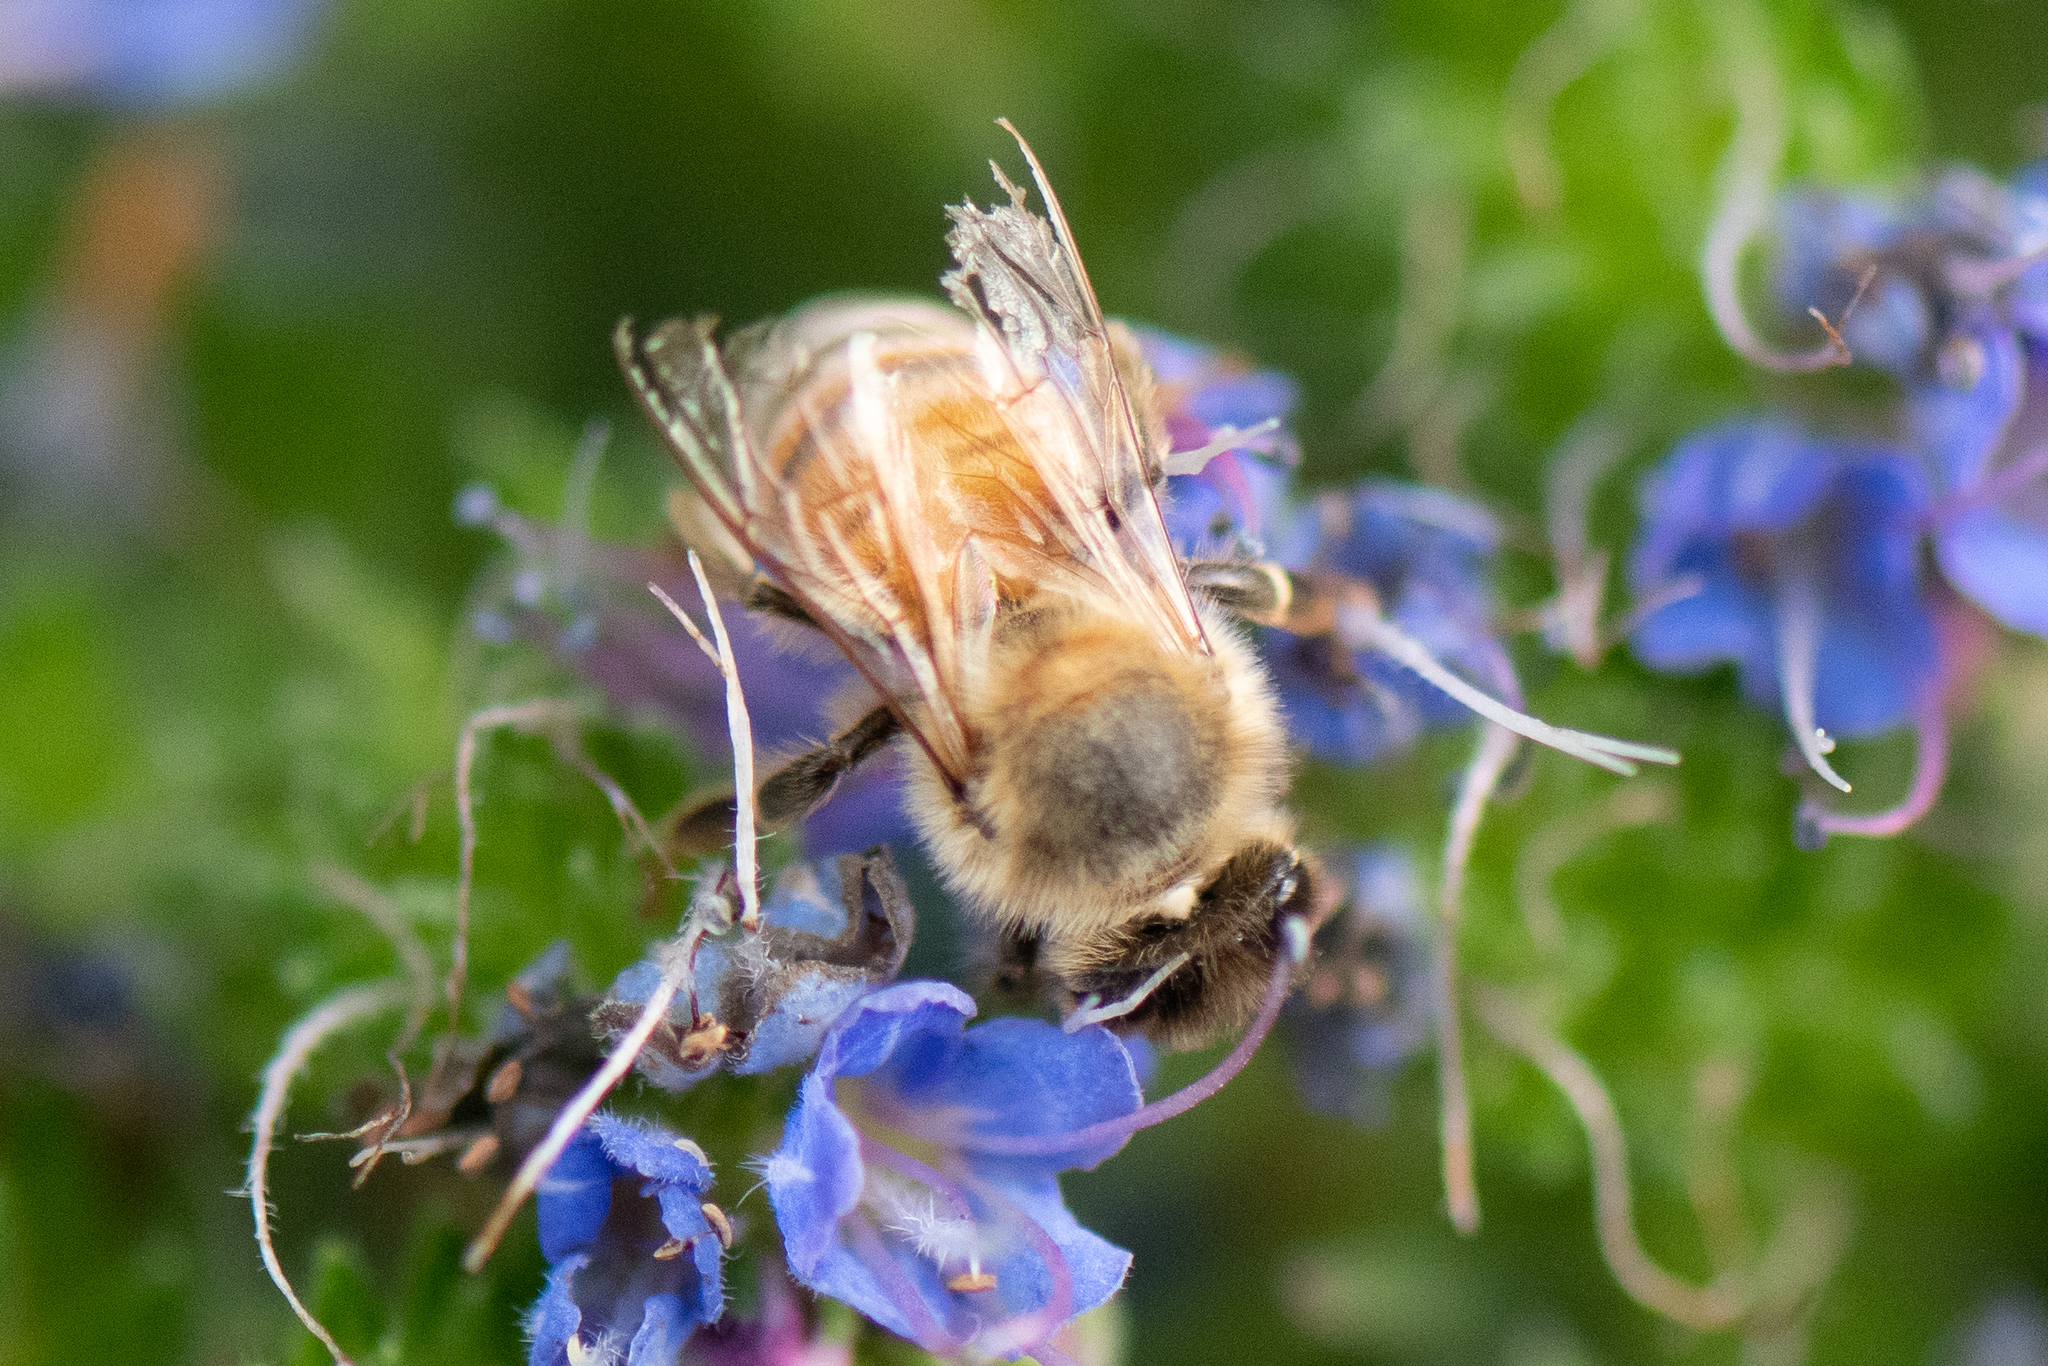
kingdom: Animalia
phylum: Arthropoda
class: Insecta
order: Hymenoptera
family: Apidae
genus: Apis
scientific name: Apis mellifera
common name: Honey bee
